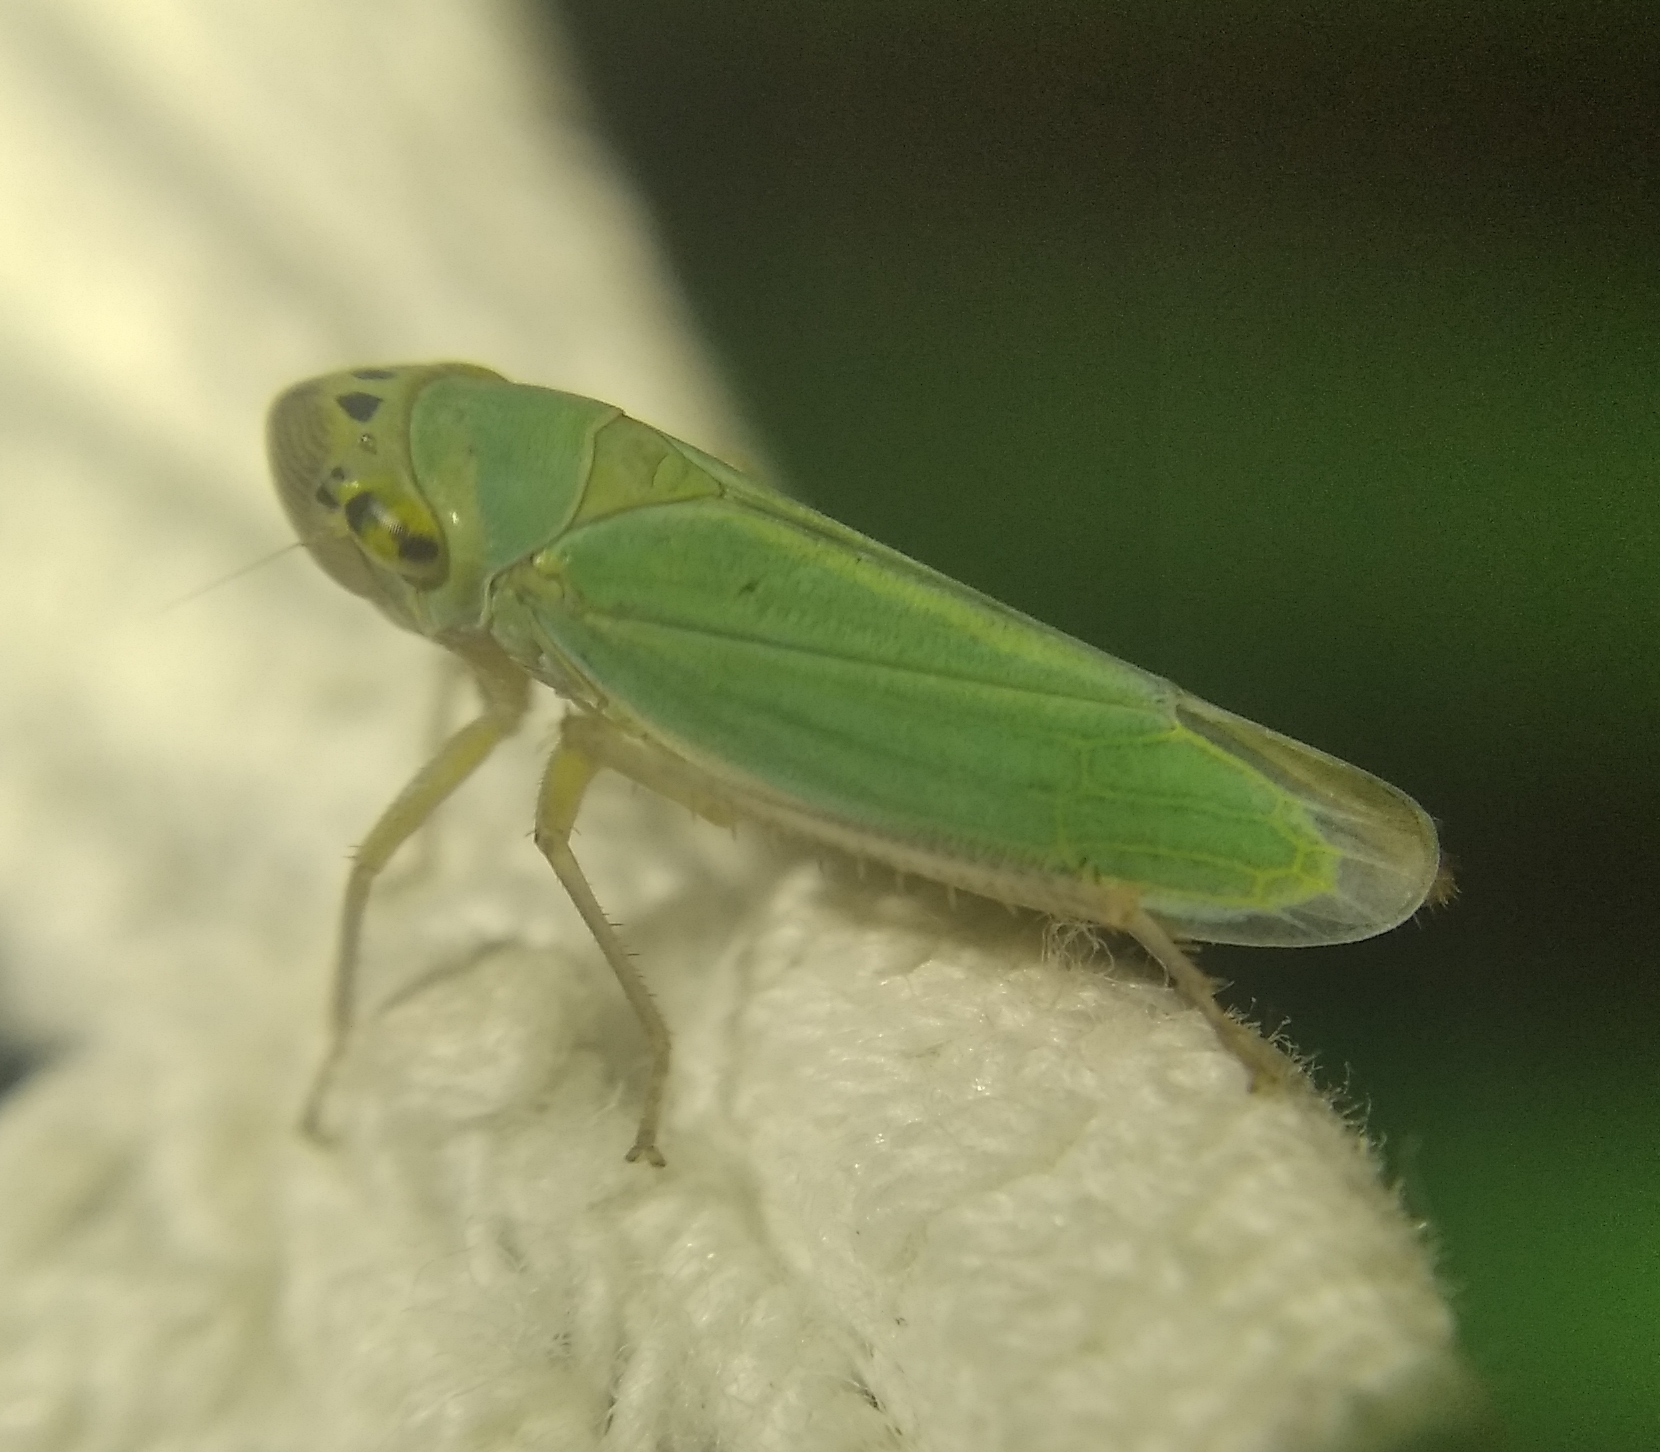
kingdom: Animalia
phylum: Arthropoda
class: Insecta
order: Hemiptera
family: Cicadellidae
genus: Cicadella
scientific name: Cicadella viridis
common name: Leafhopper
